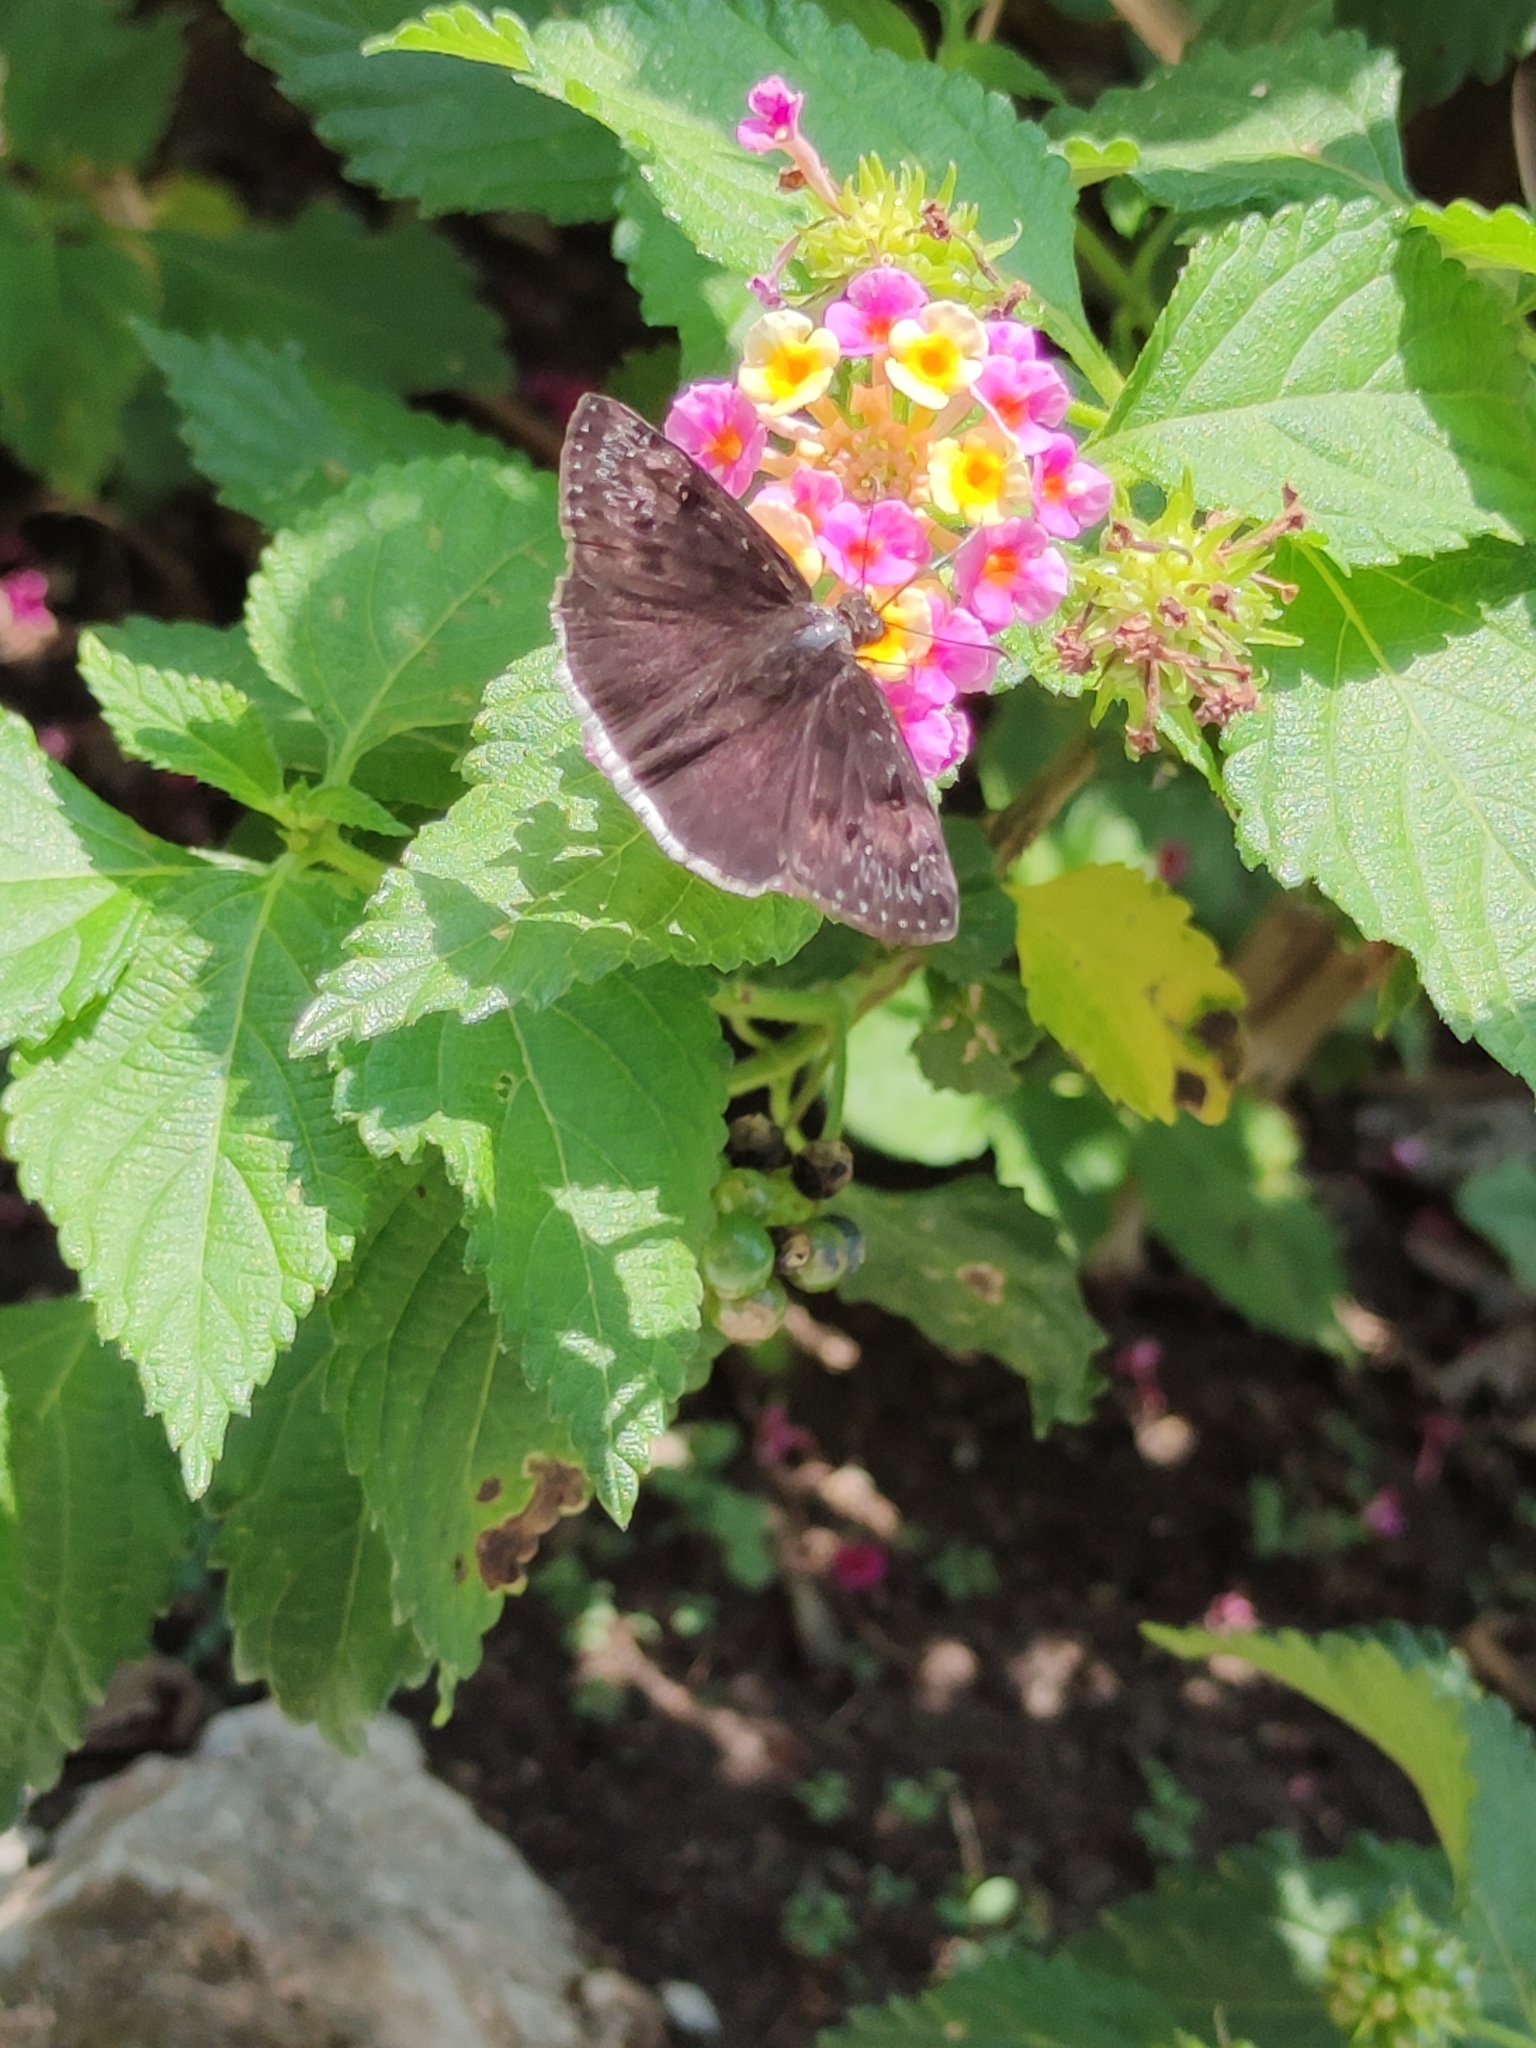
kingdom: Animalia
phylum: Arthropoda
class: Insecta
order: Lepidoptera
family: Hesperiidae
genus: Erynnis
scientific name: Erynnis tristis
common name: Mournful duskywing
